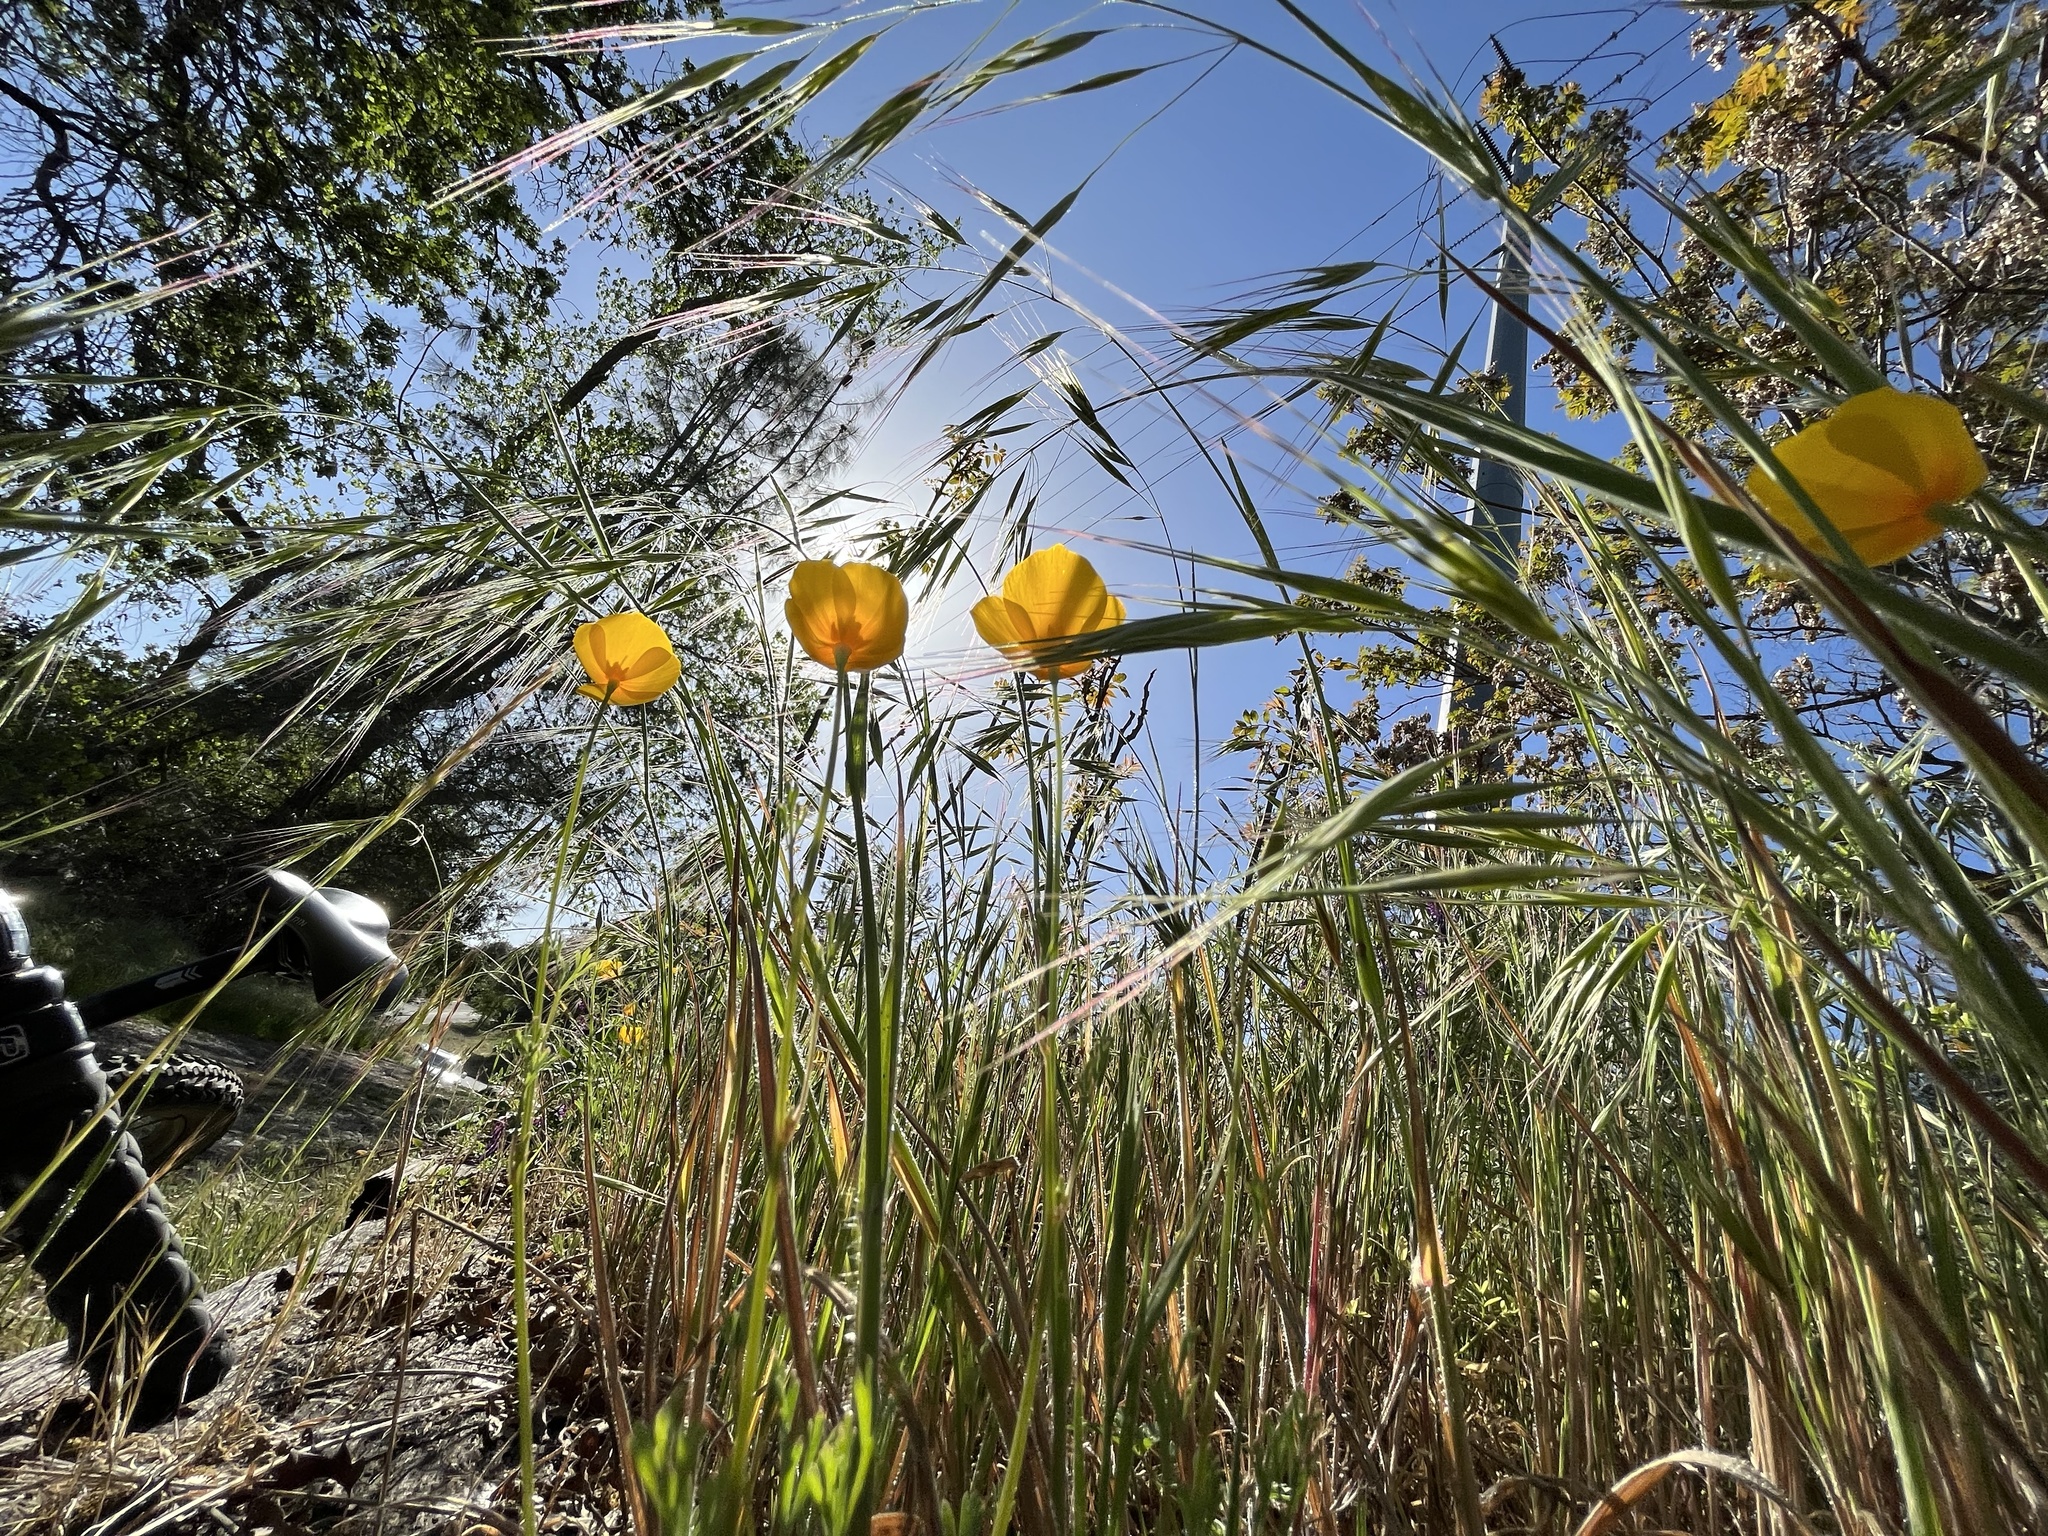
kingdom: Plantae
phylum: Tracheophyta
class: Magnoliopsida
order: Ranunculales
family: Papaveraceae
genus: Eschscholzia
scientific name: Eschscholzia californica
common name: California poppy
